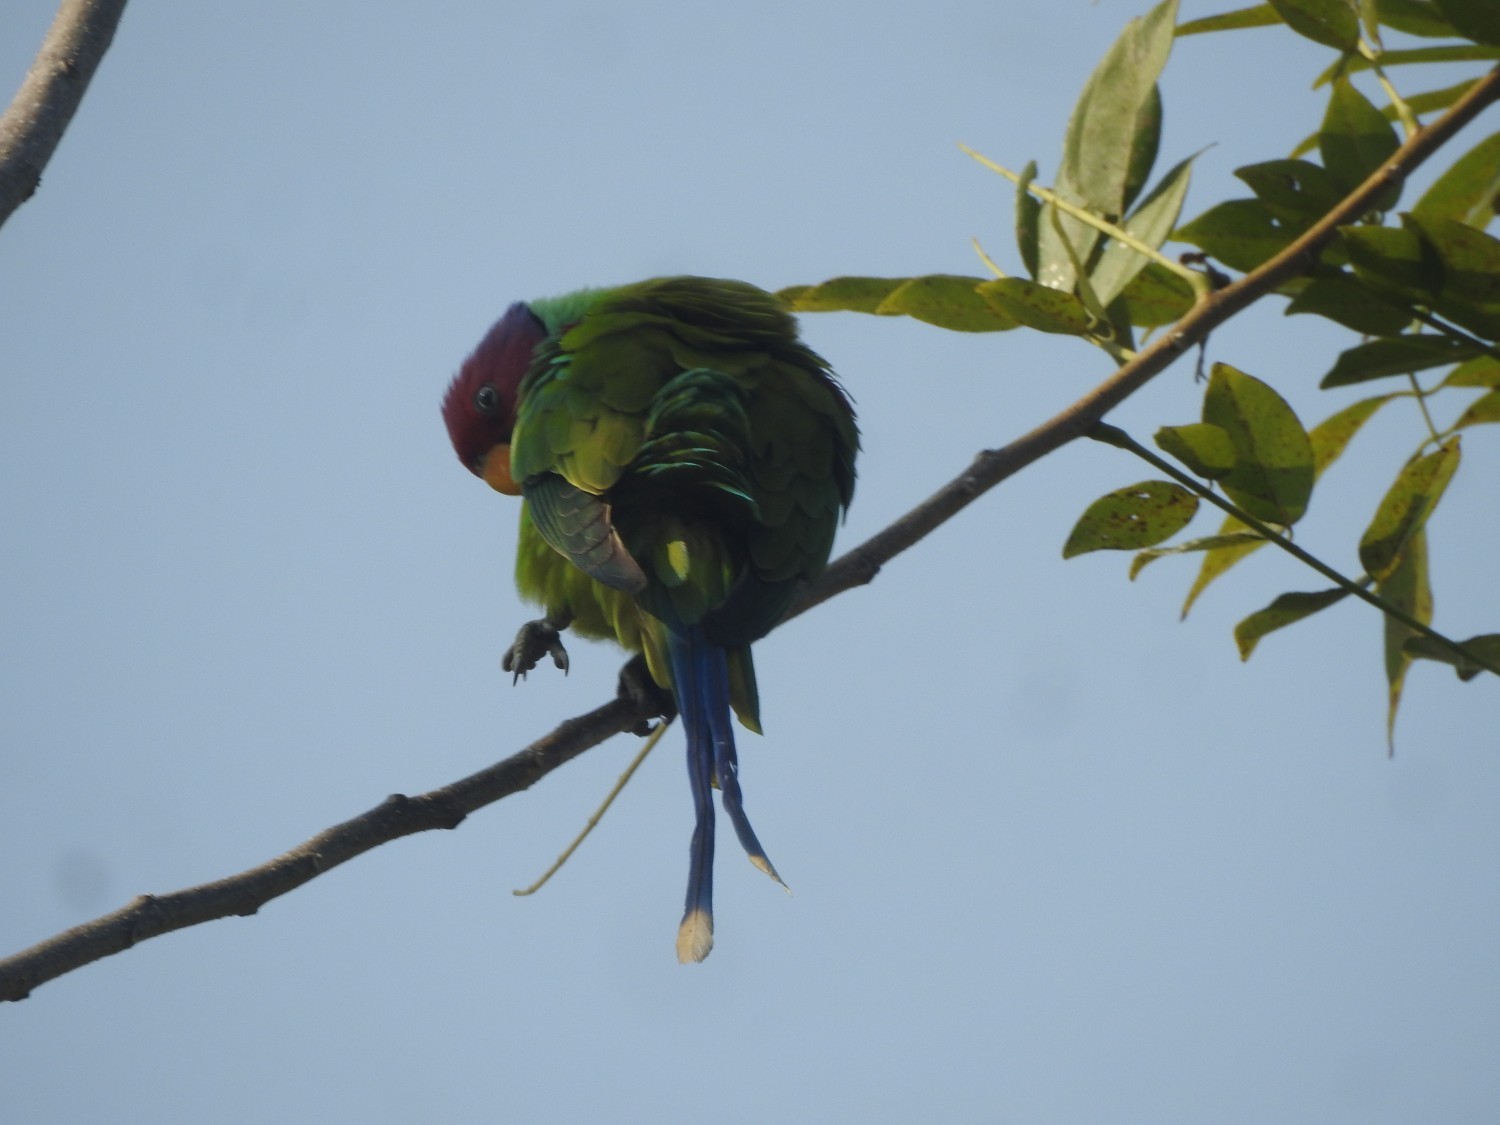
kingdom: Animalia
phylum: Chordata
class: Aves
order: Psittaciformes
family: Psittacidae
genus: Psittacula
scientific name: Psittacula cyanocephala
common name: Plum-headed parakeet
